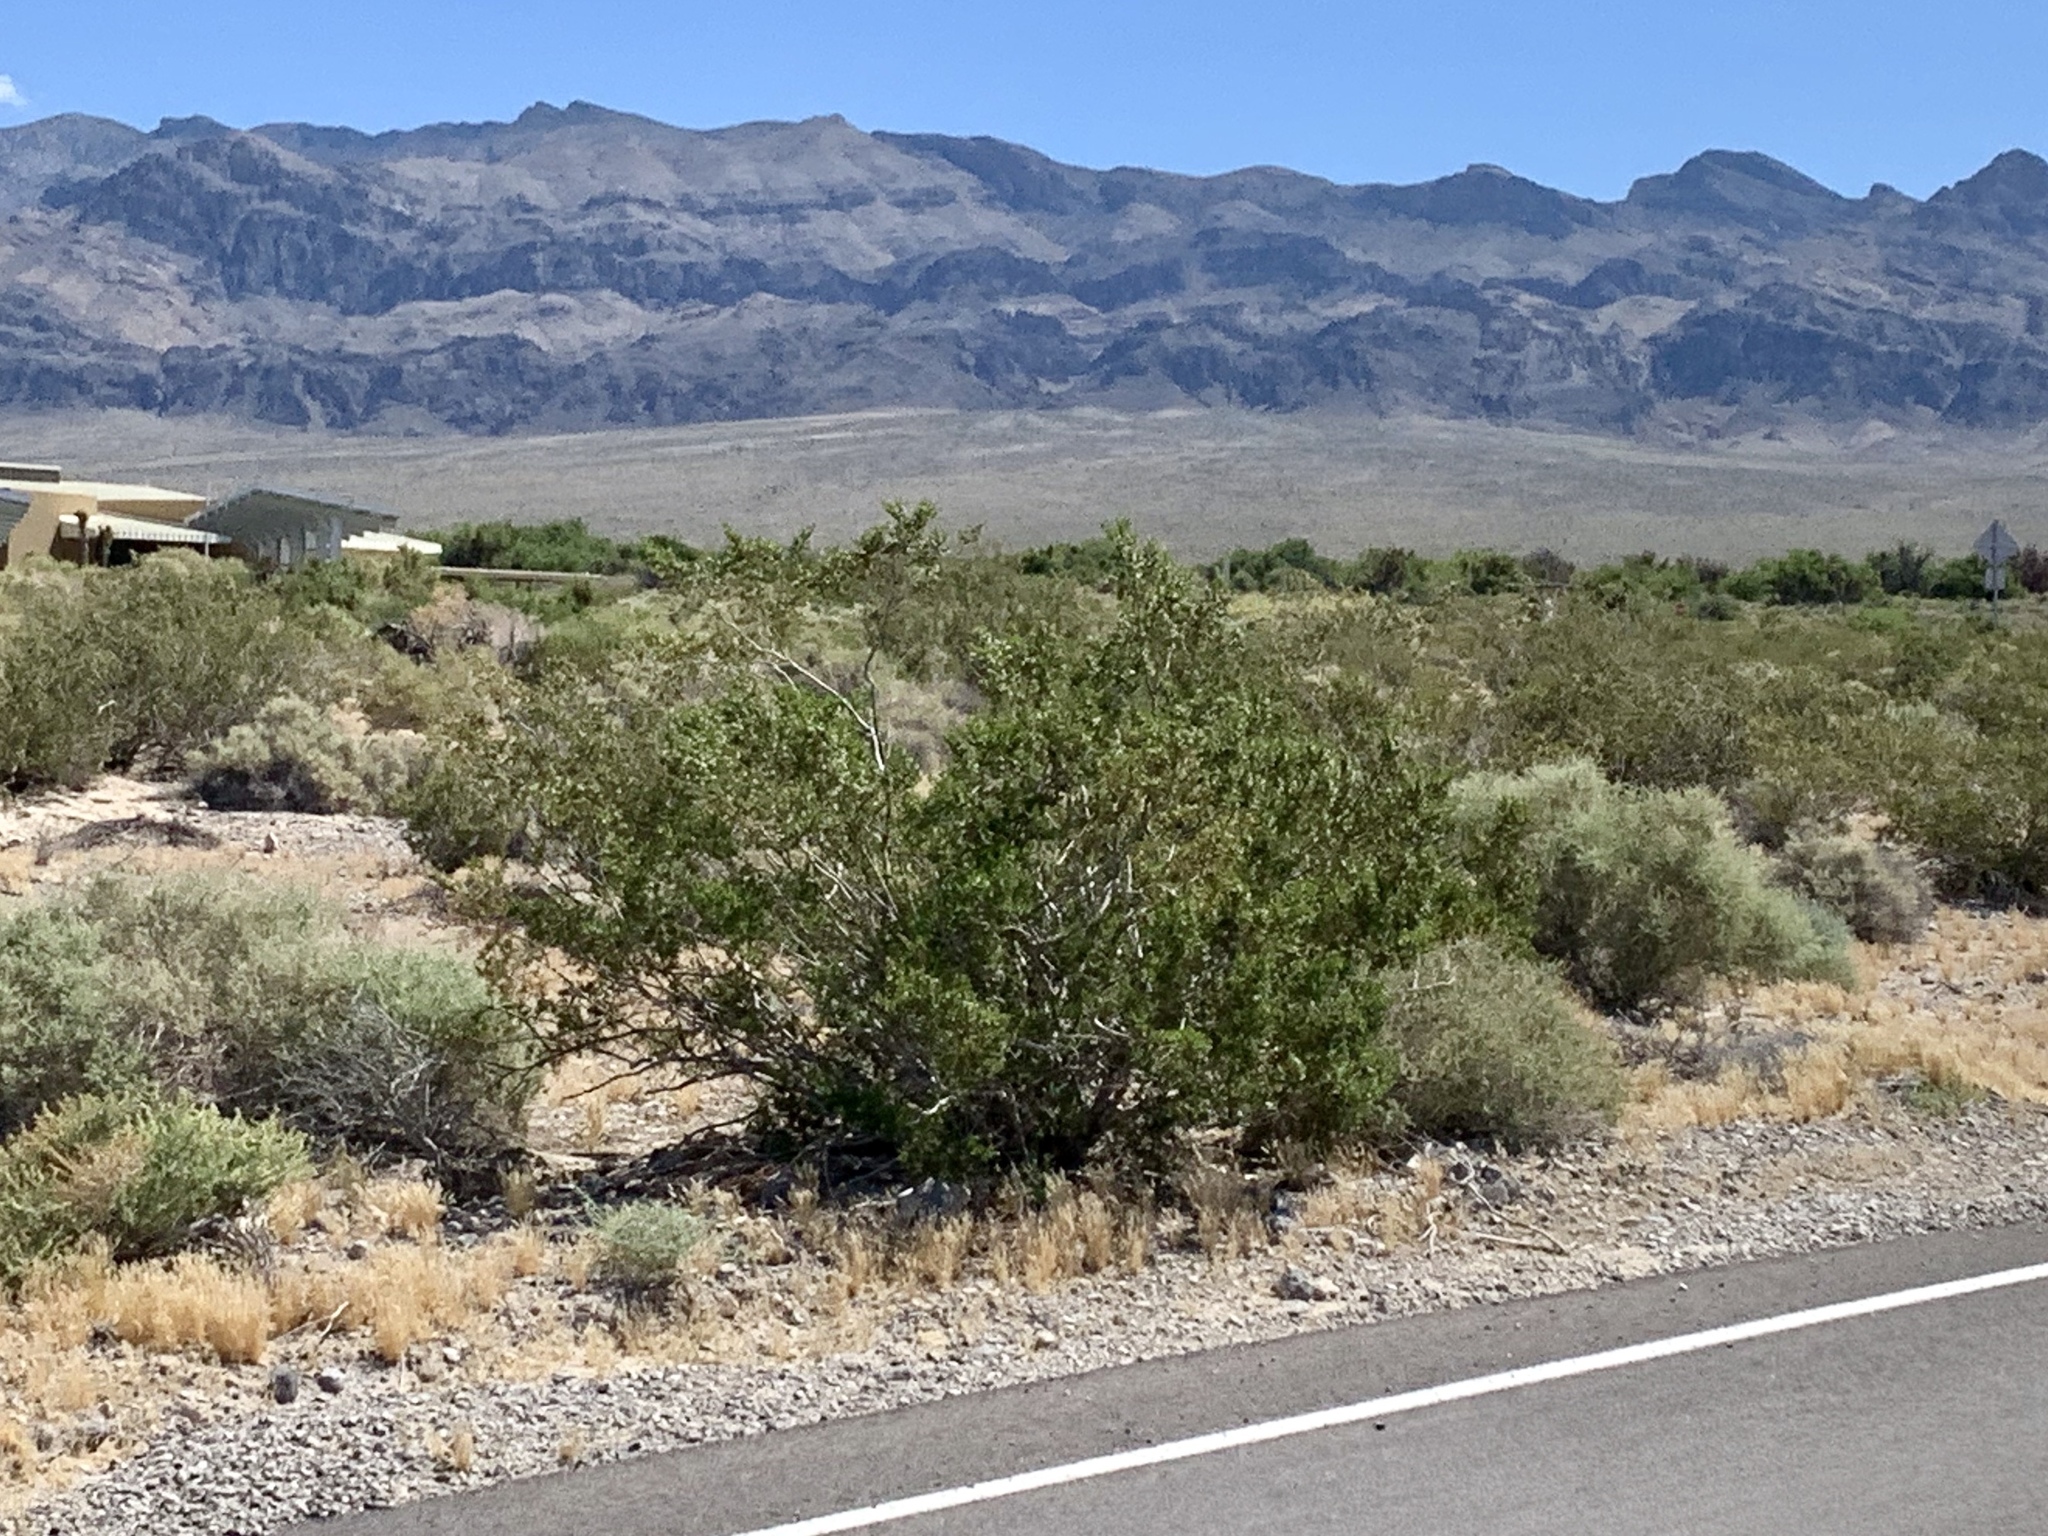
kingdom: Plantae
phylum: Tracheophyta
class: Magnoliopsida
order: Zygophyllales
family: Zygophyllaceae
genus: Larrea
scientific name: Larrea tridentata
